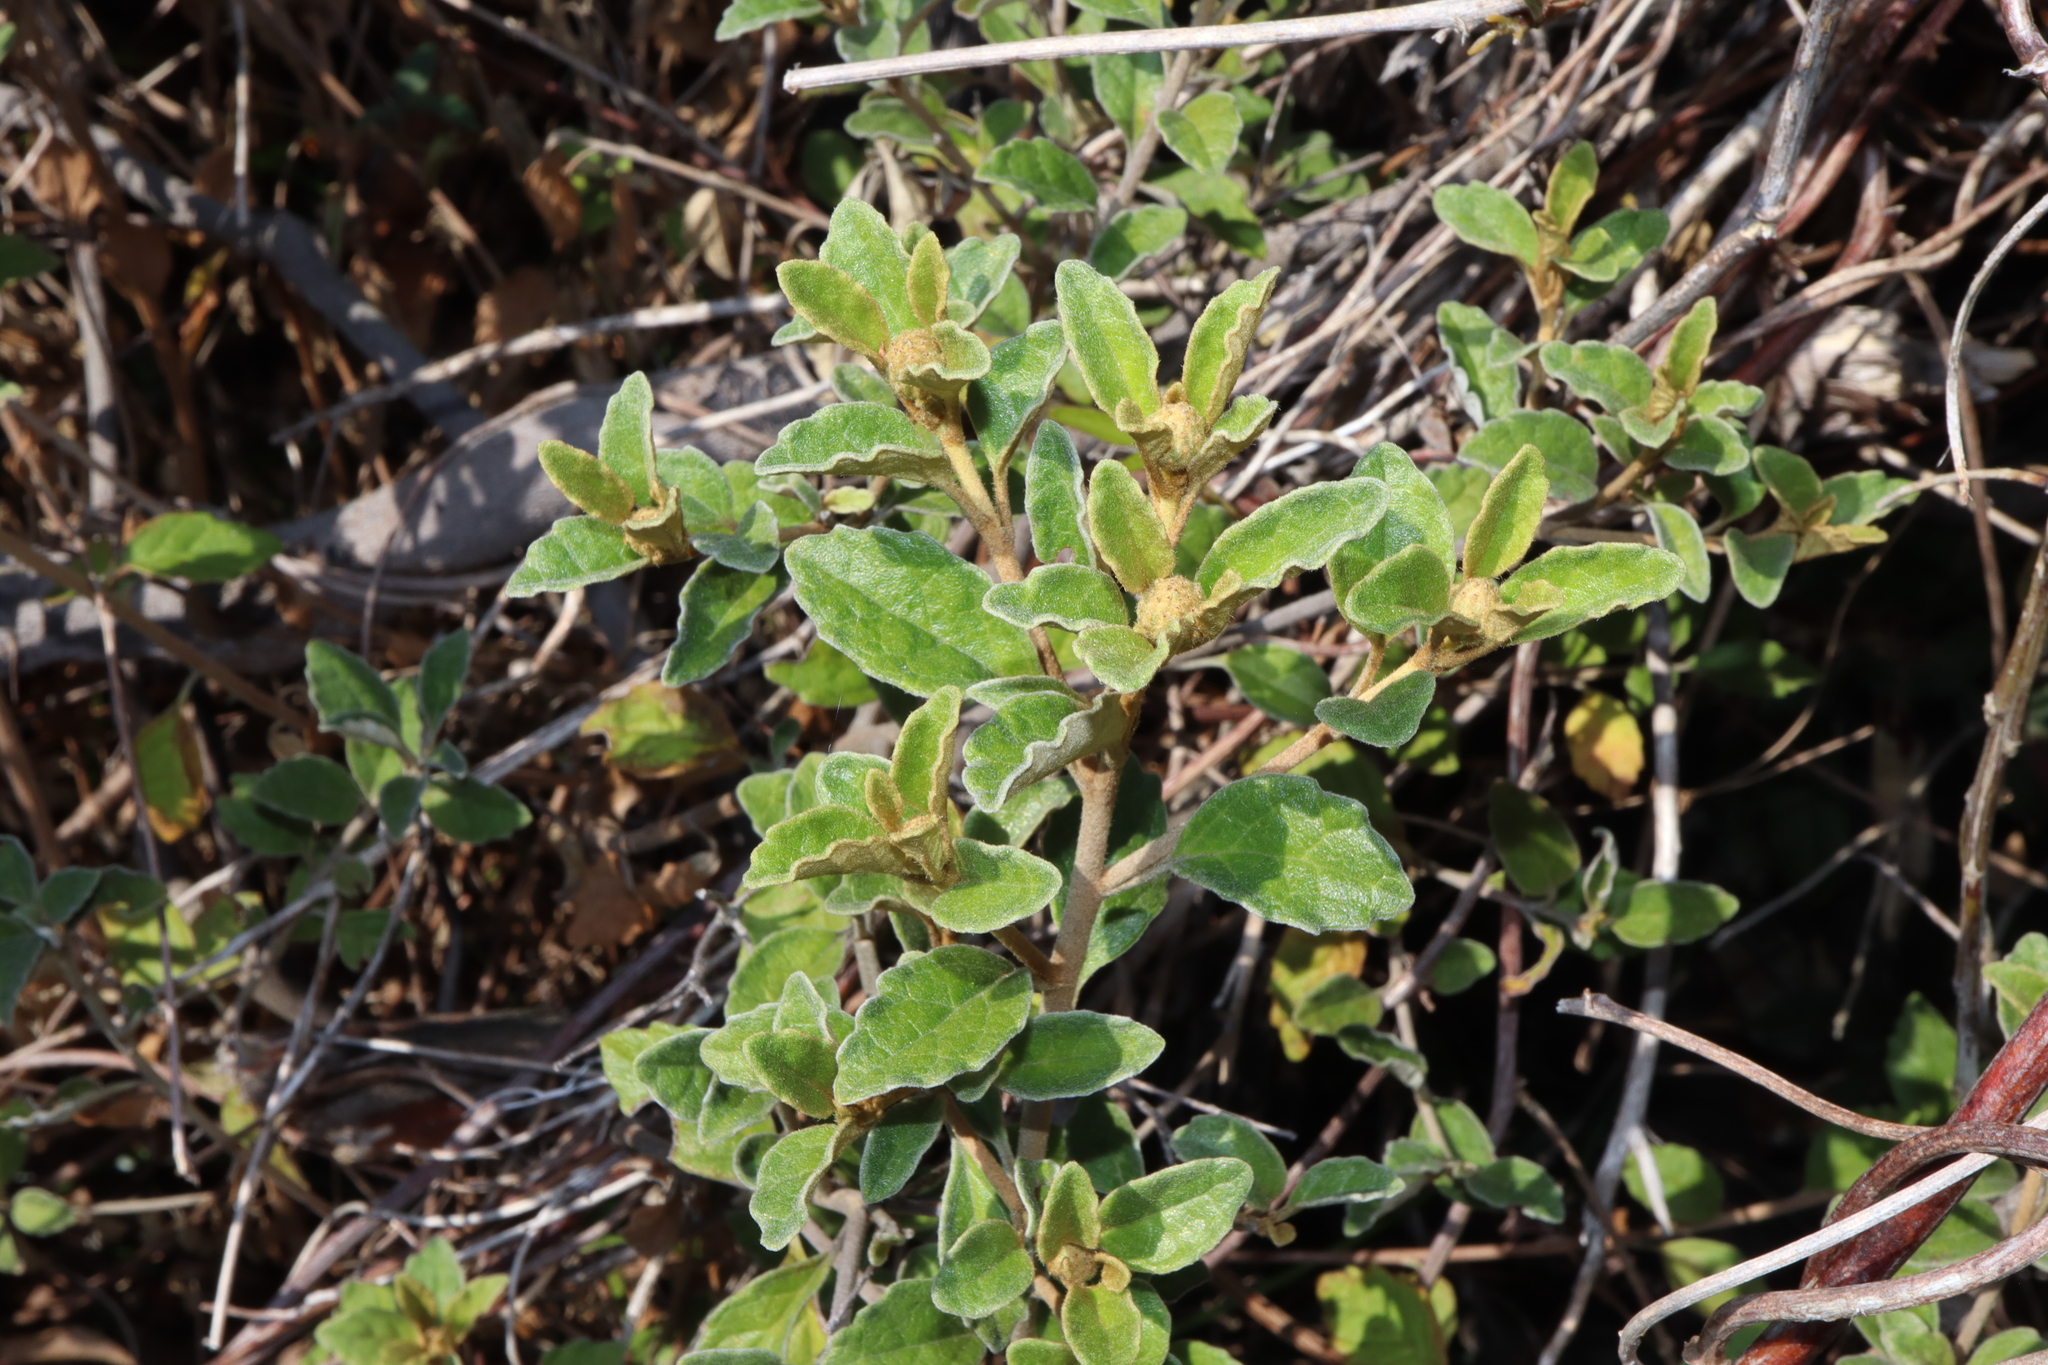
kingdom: Plantae
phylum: Tracheophyta
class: Magnoliopsida
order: Asterales
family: Asteraceae
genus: Olearia
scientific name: Olearia tomentosa
